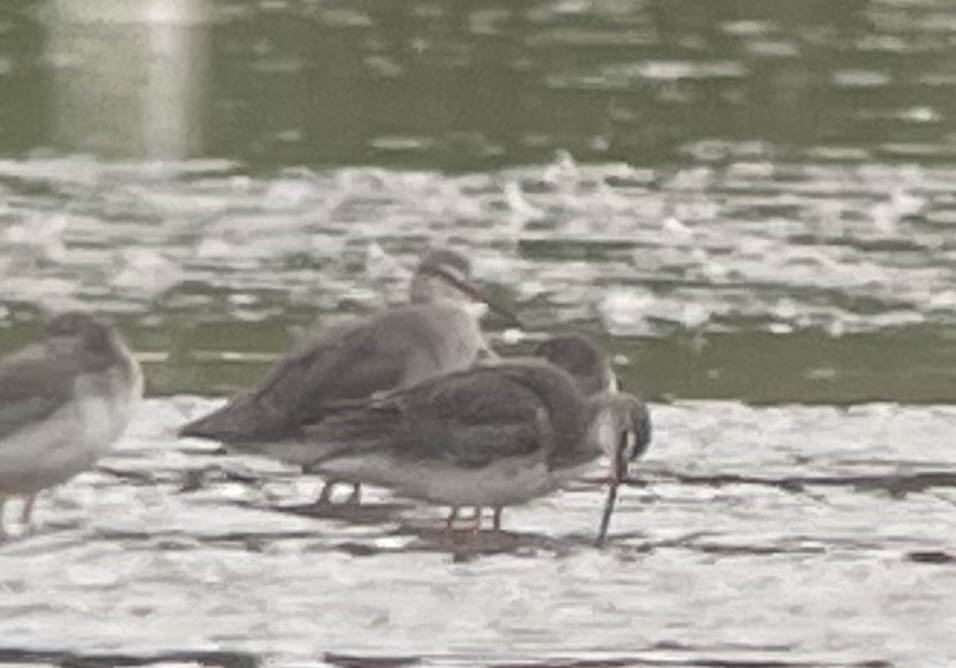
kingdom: Animalia
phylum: Chordata
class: Aves
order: Charadriiformes
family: Scolopacidae
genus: Tringa
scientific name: Tringa erythropus
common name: Spotted redshank
